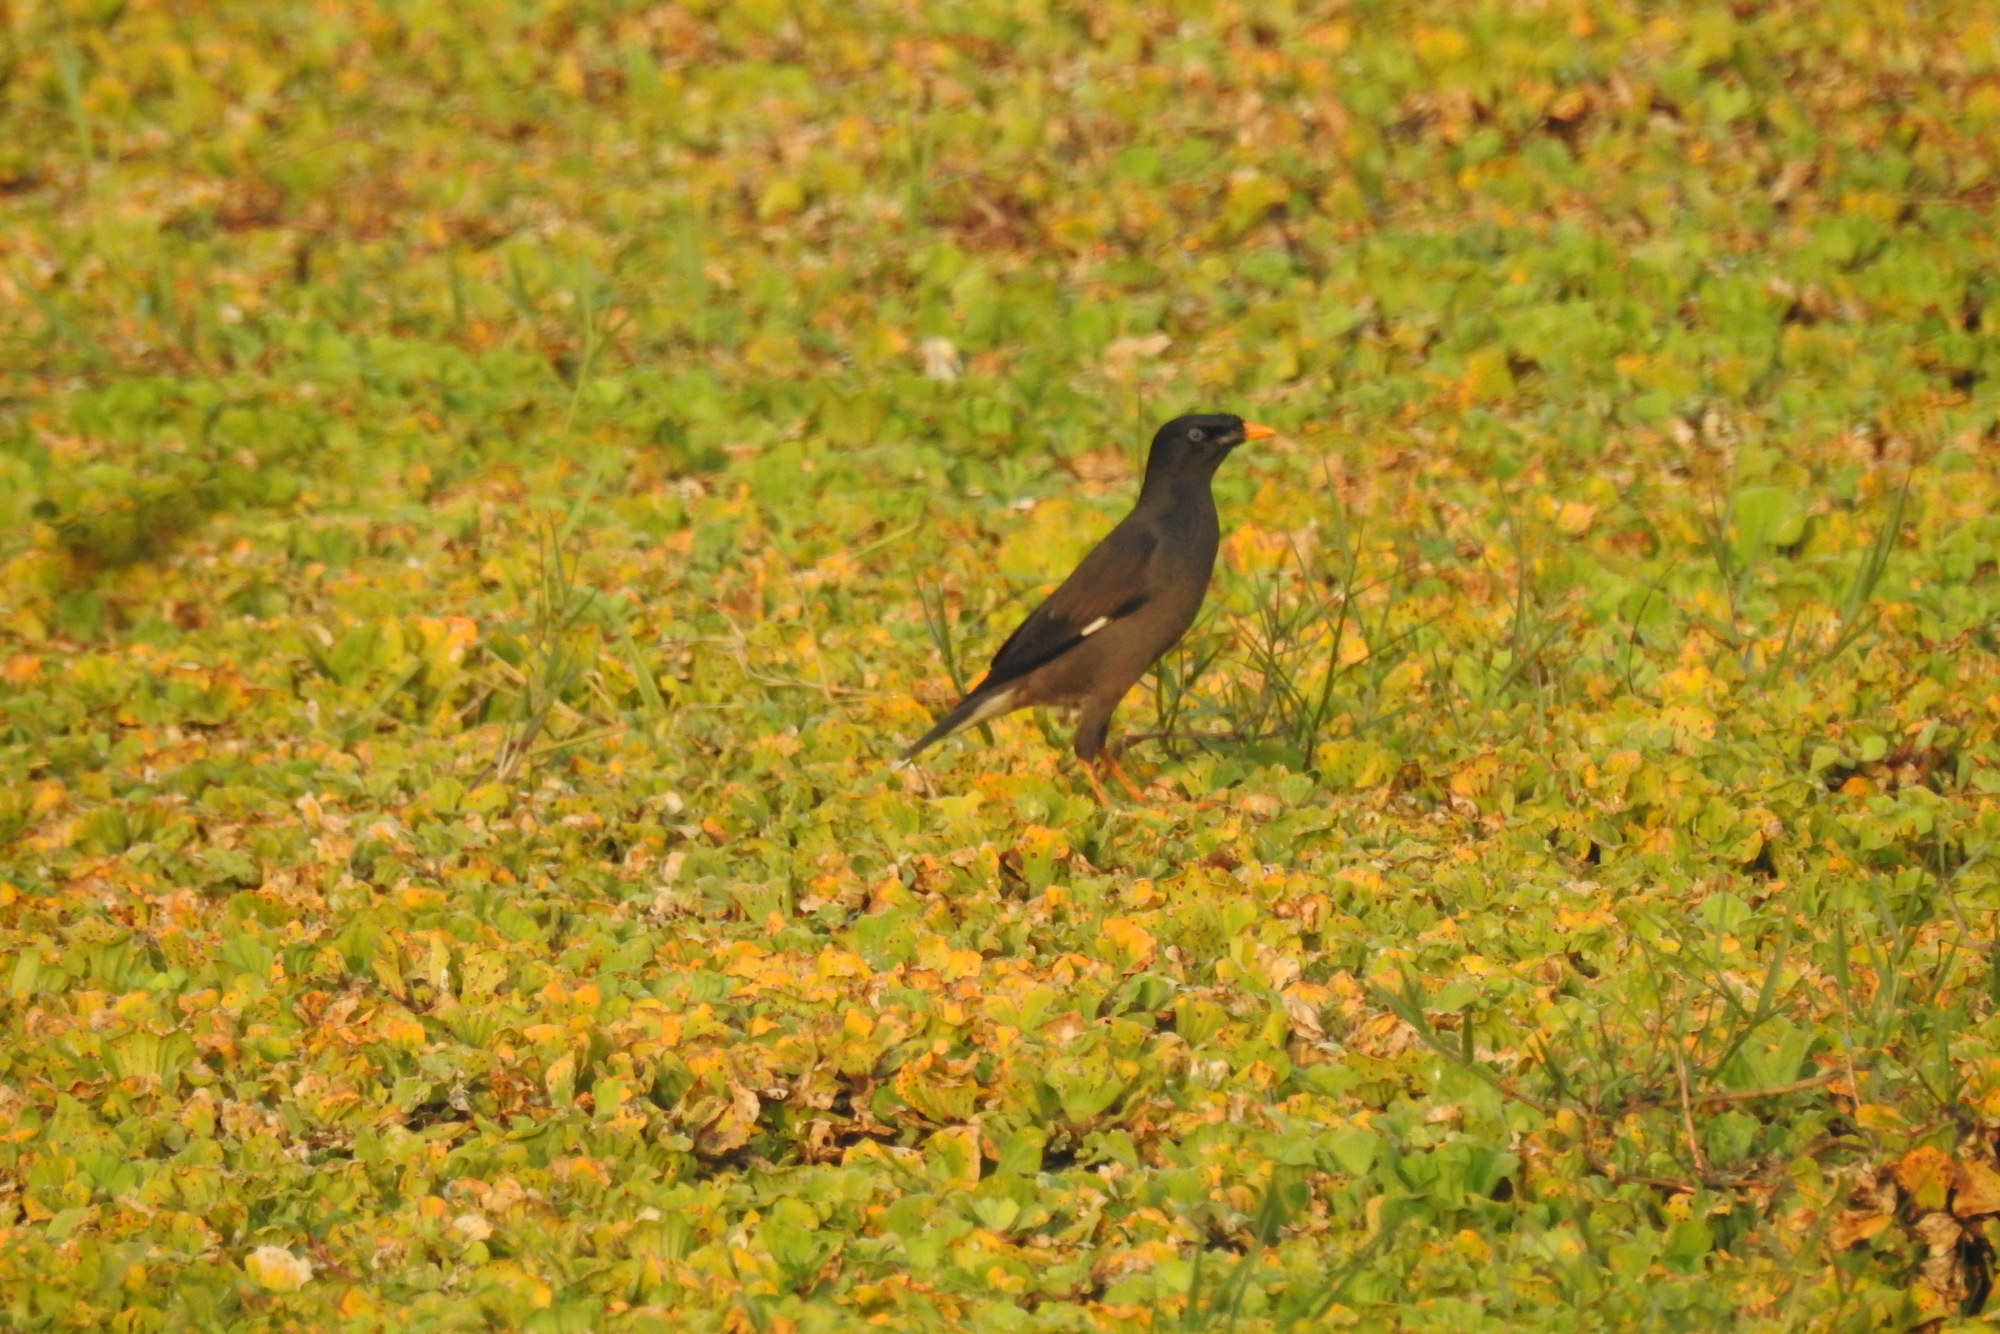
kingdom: Animalia
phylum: Chordata
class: Aves
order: Passeriformes
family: Sturnidae
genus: Acridotheres
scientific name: Acridotheres fuscus
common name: Jungle myna
